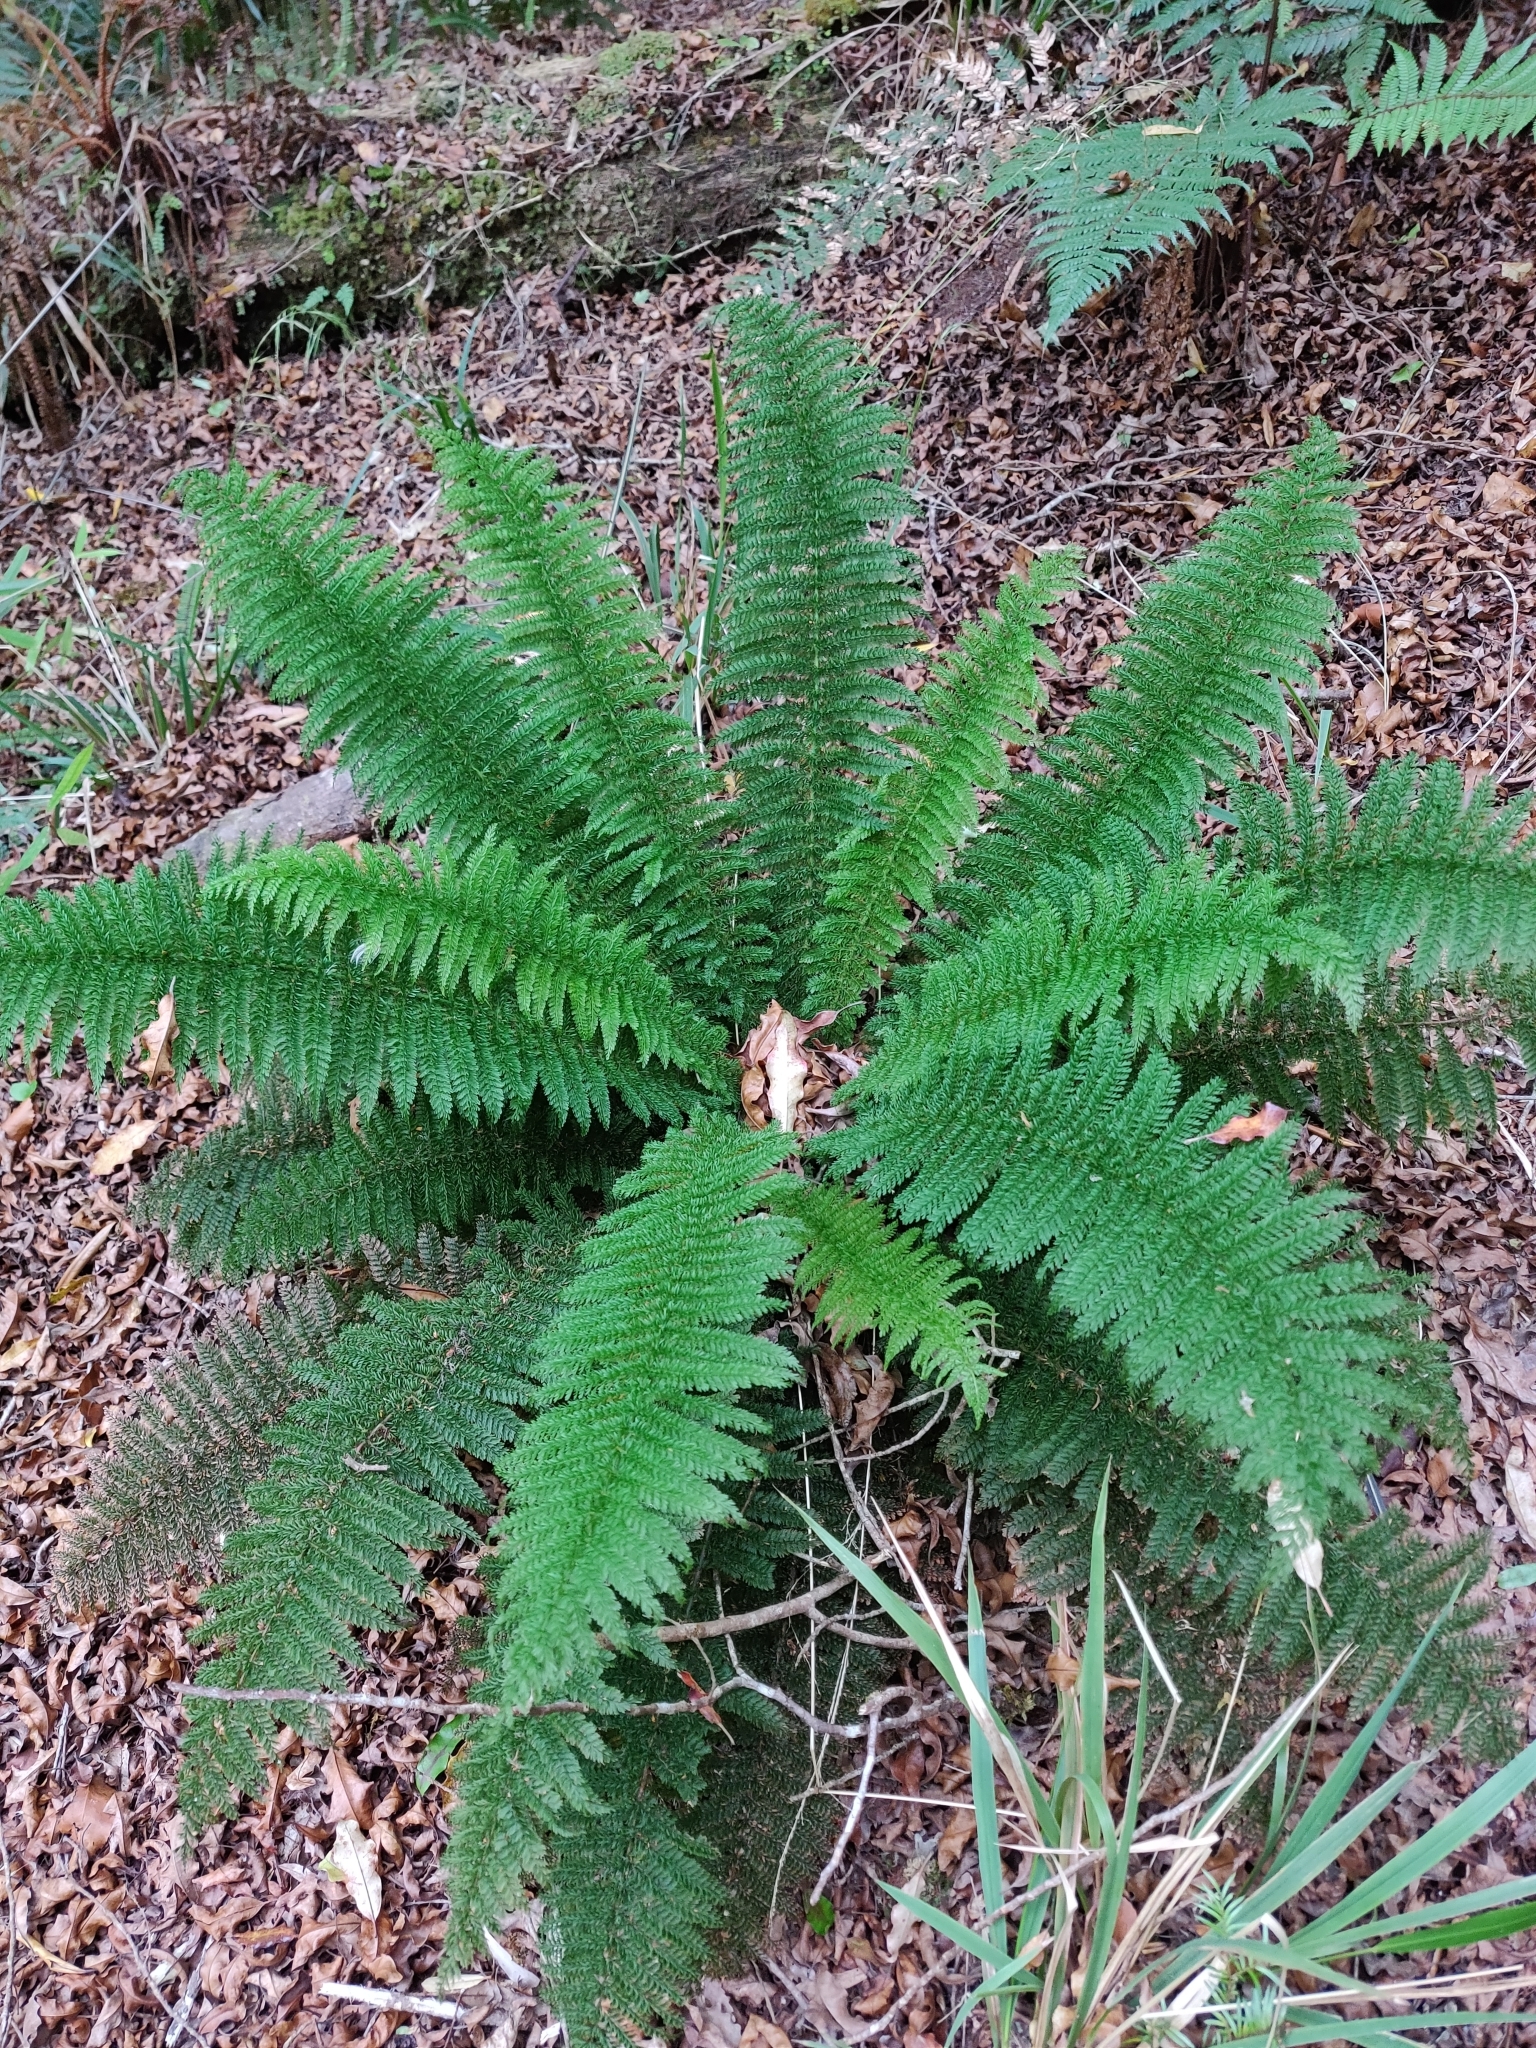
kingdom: Plantae
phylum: Tracheophyta
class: Polypodiopsida
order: Osmundales
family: Osmundaceae
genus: Leptopteris
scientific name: Leptopteris superba
